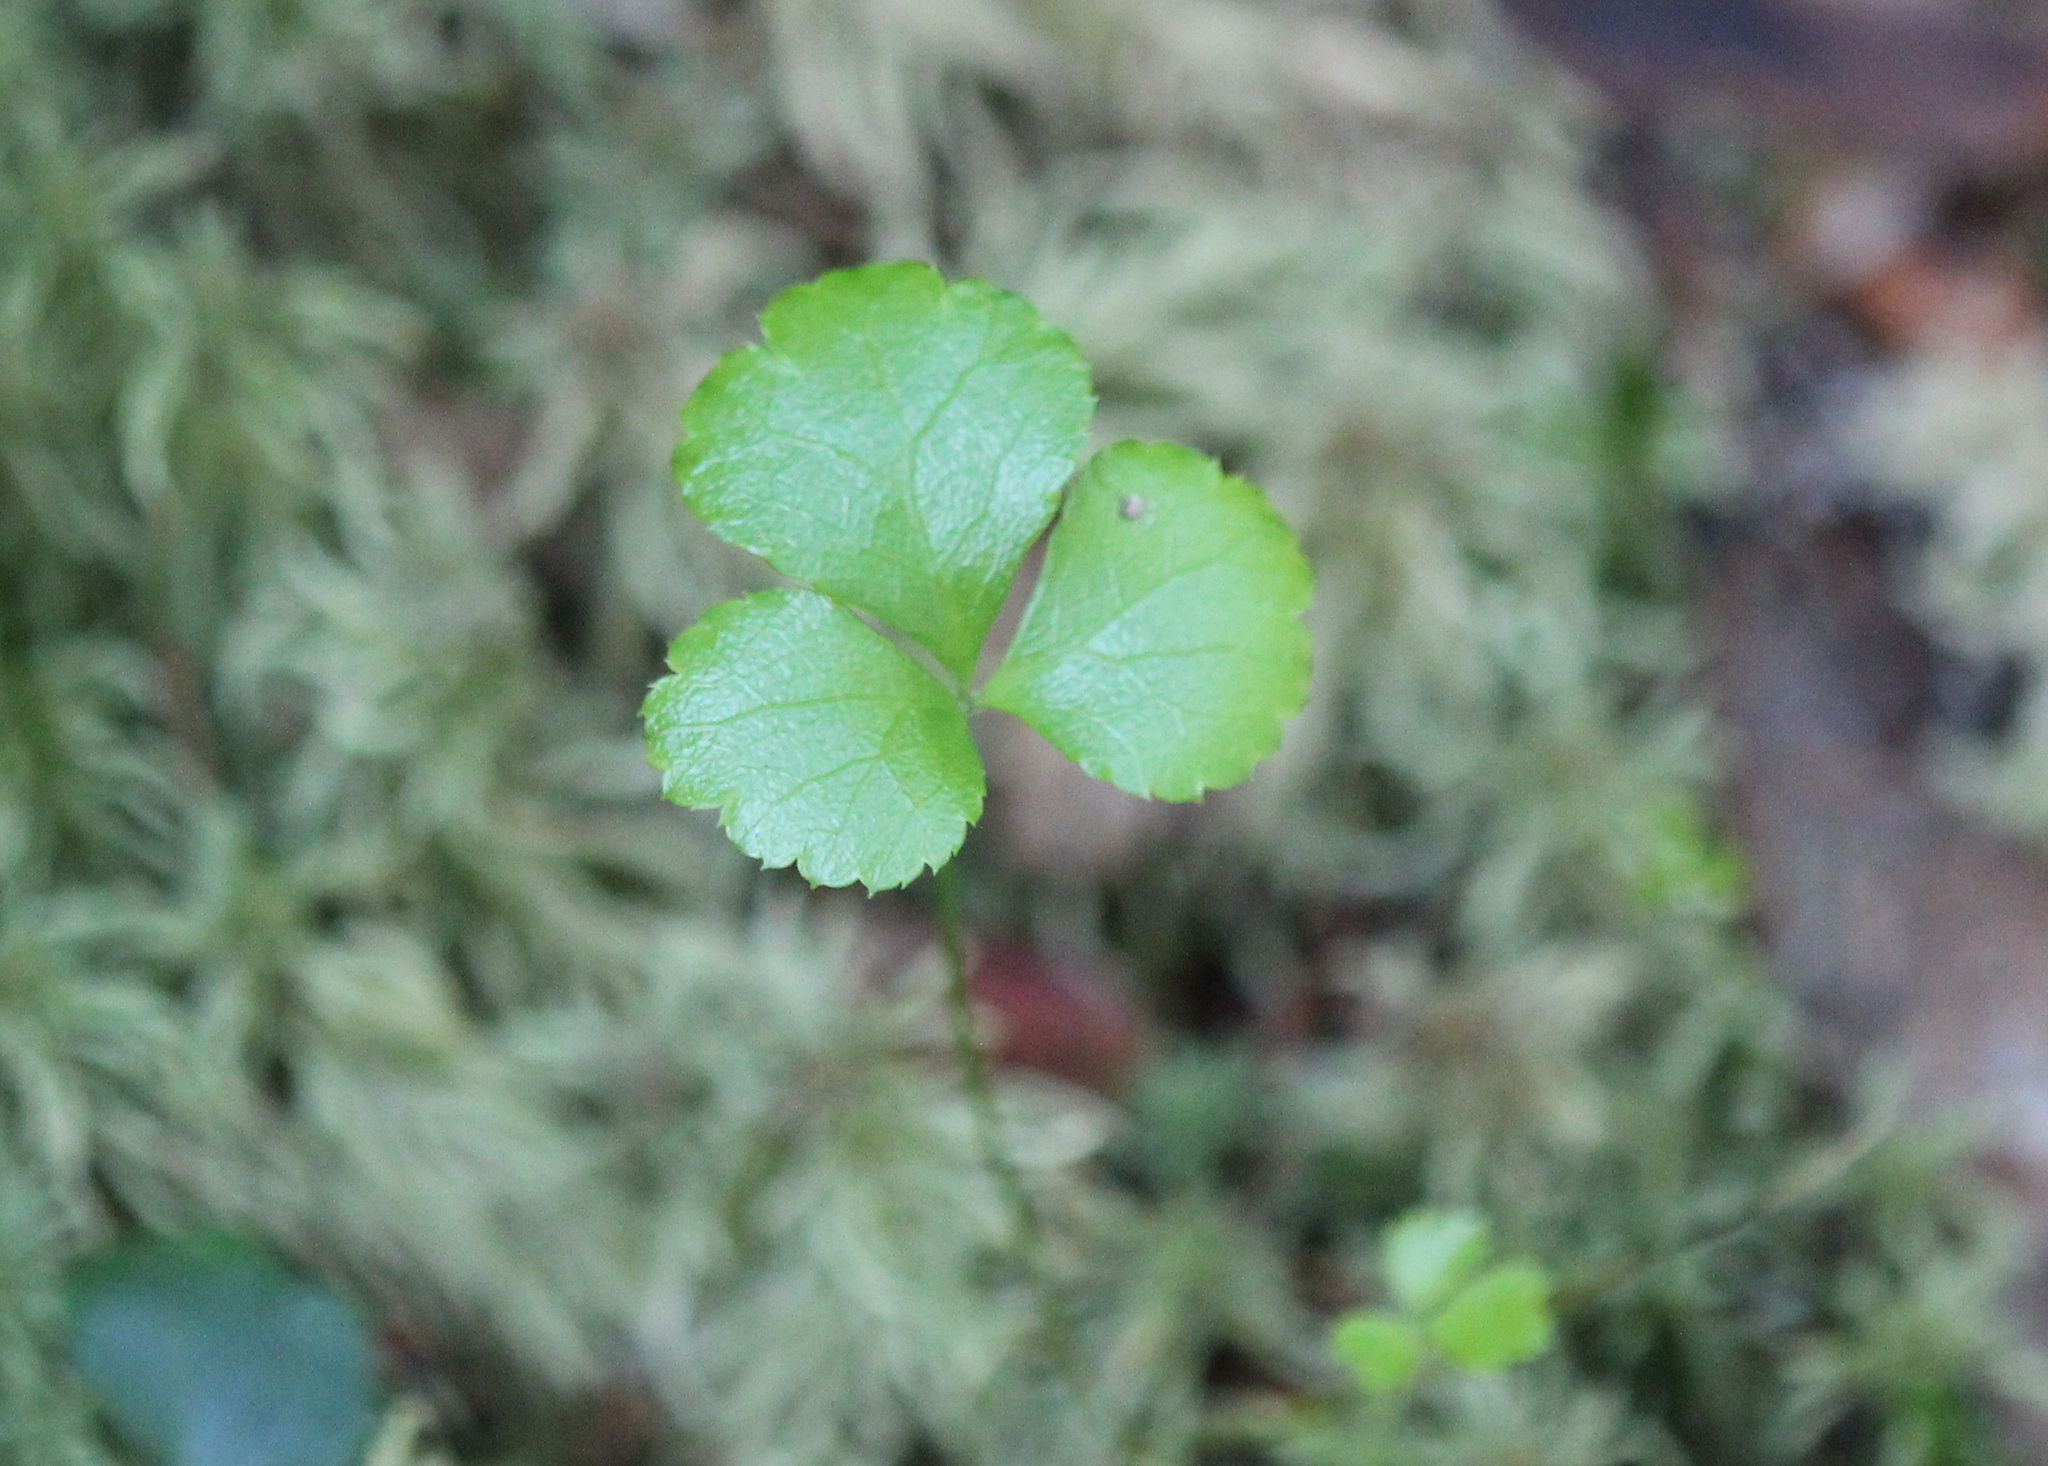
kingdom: Plantae
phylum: Tracheophyta
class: Magnoliopsida
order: Ranunculales
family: Ranunculaceae
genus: Coptis
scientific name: Coptis trifolia
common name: Canker-root
